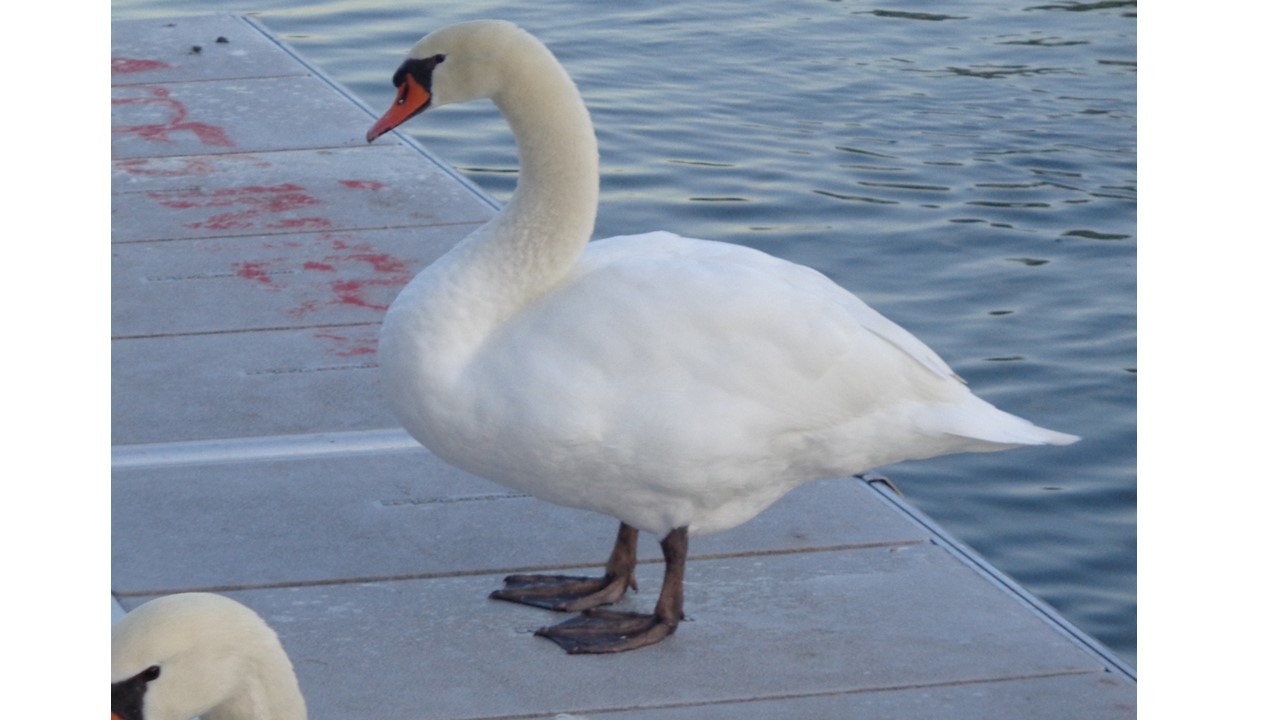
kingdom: Animalia
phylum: Chordata
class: Aves
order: Anseriformes
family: Anatidae
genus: Cygnus
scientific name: Cygnus olor
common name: Mute swan
